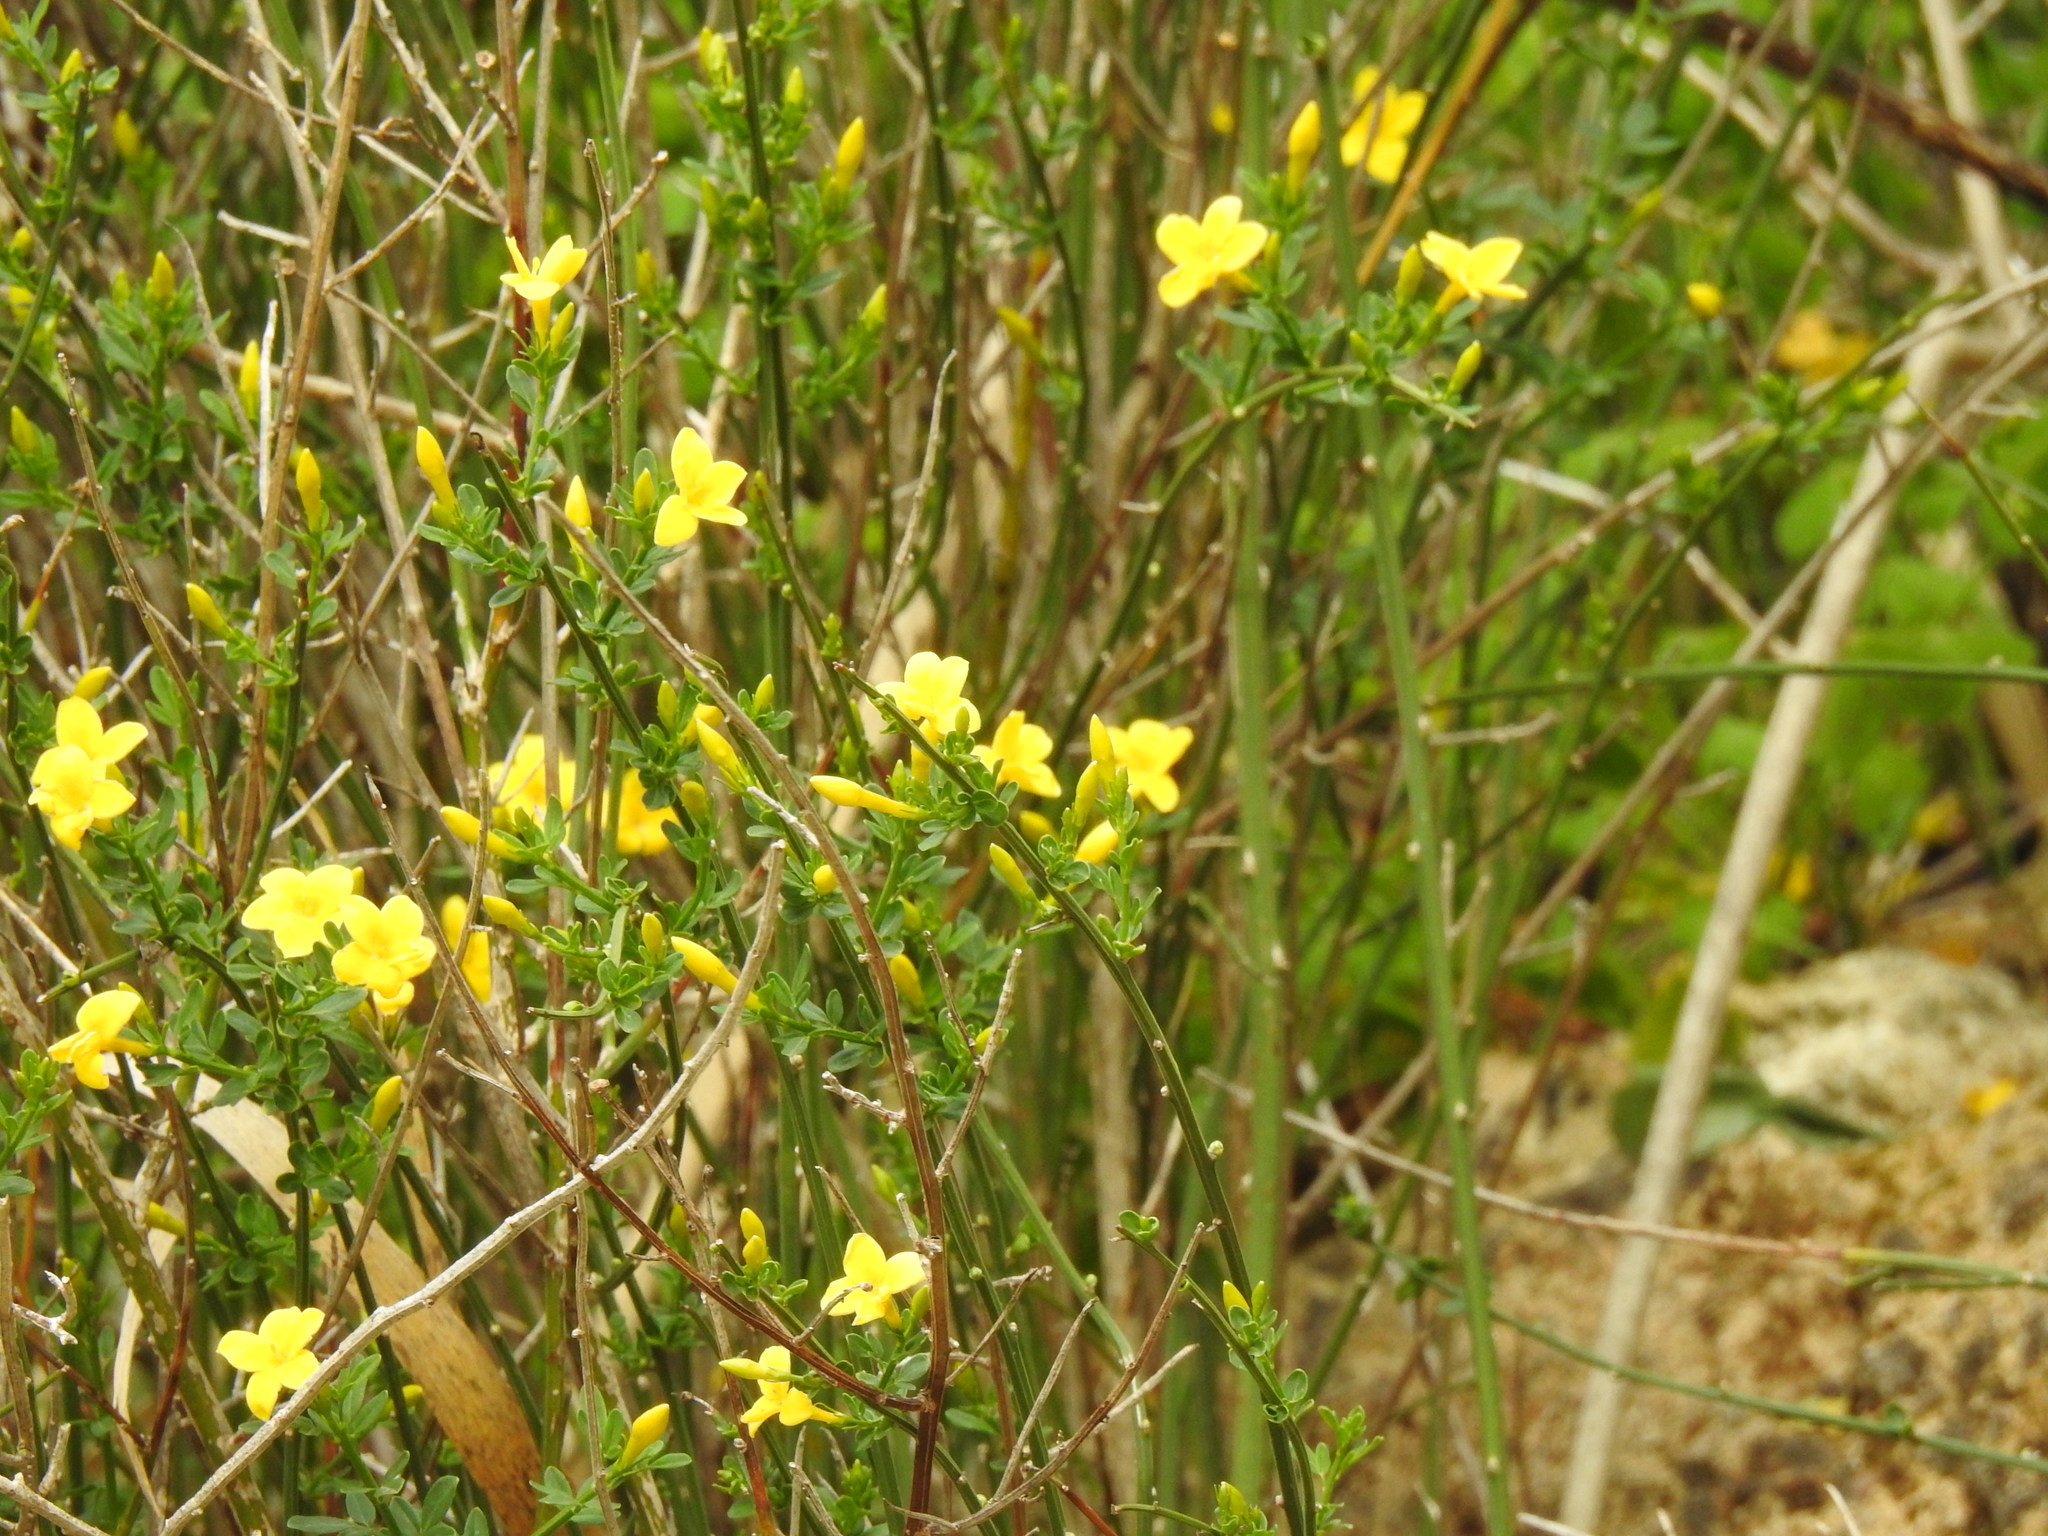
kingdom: Plantae
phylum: Tracheophyta
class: Magnoliopsida
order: Lamiales
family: Oleaceae
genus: Chrysojasminum
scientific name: Chrysojasminum fruticans
